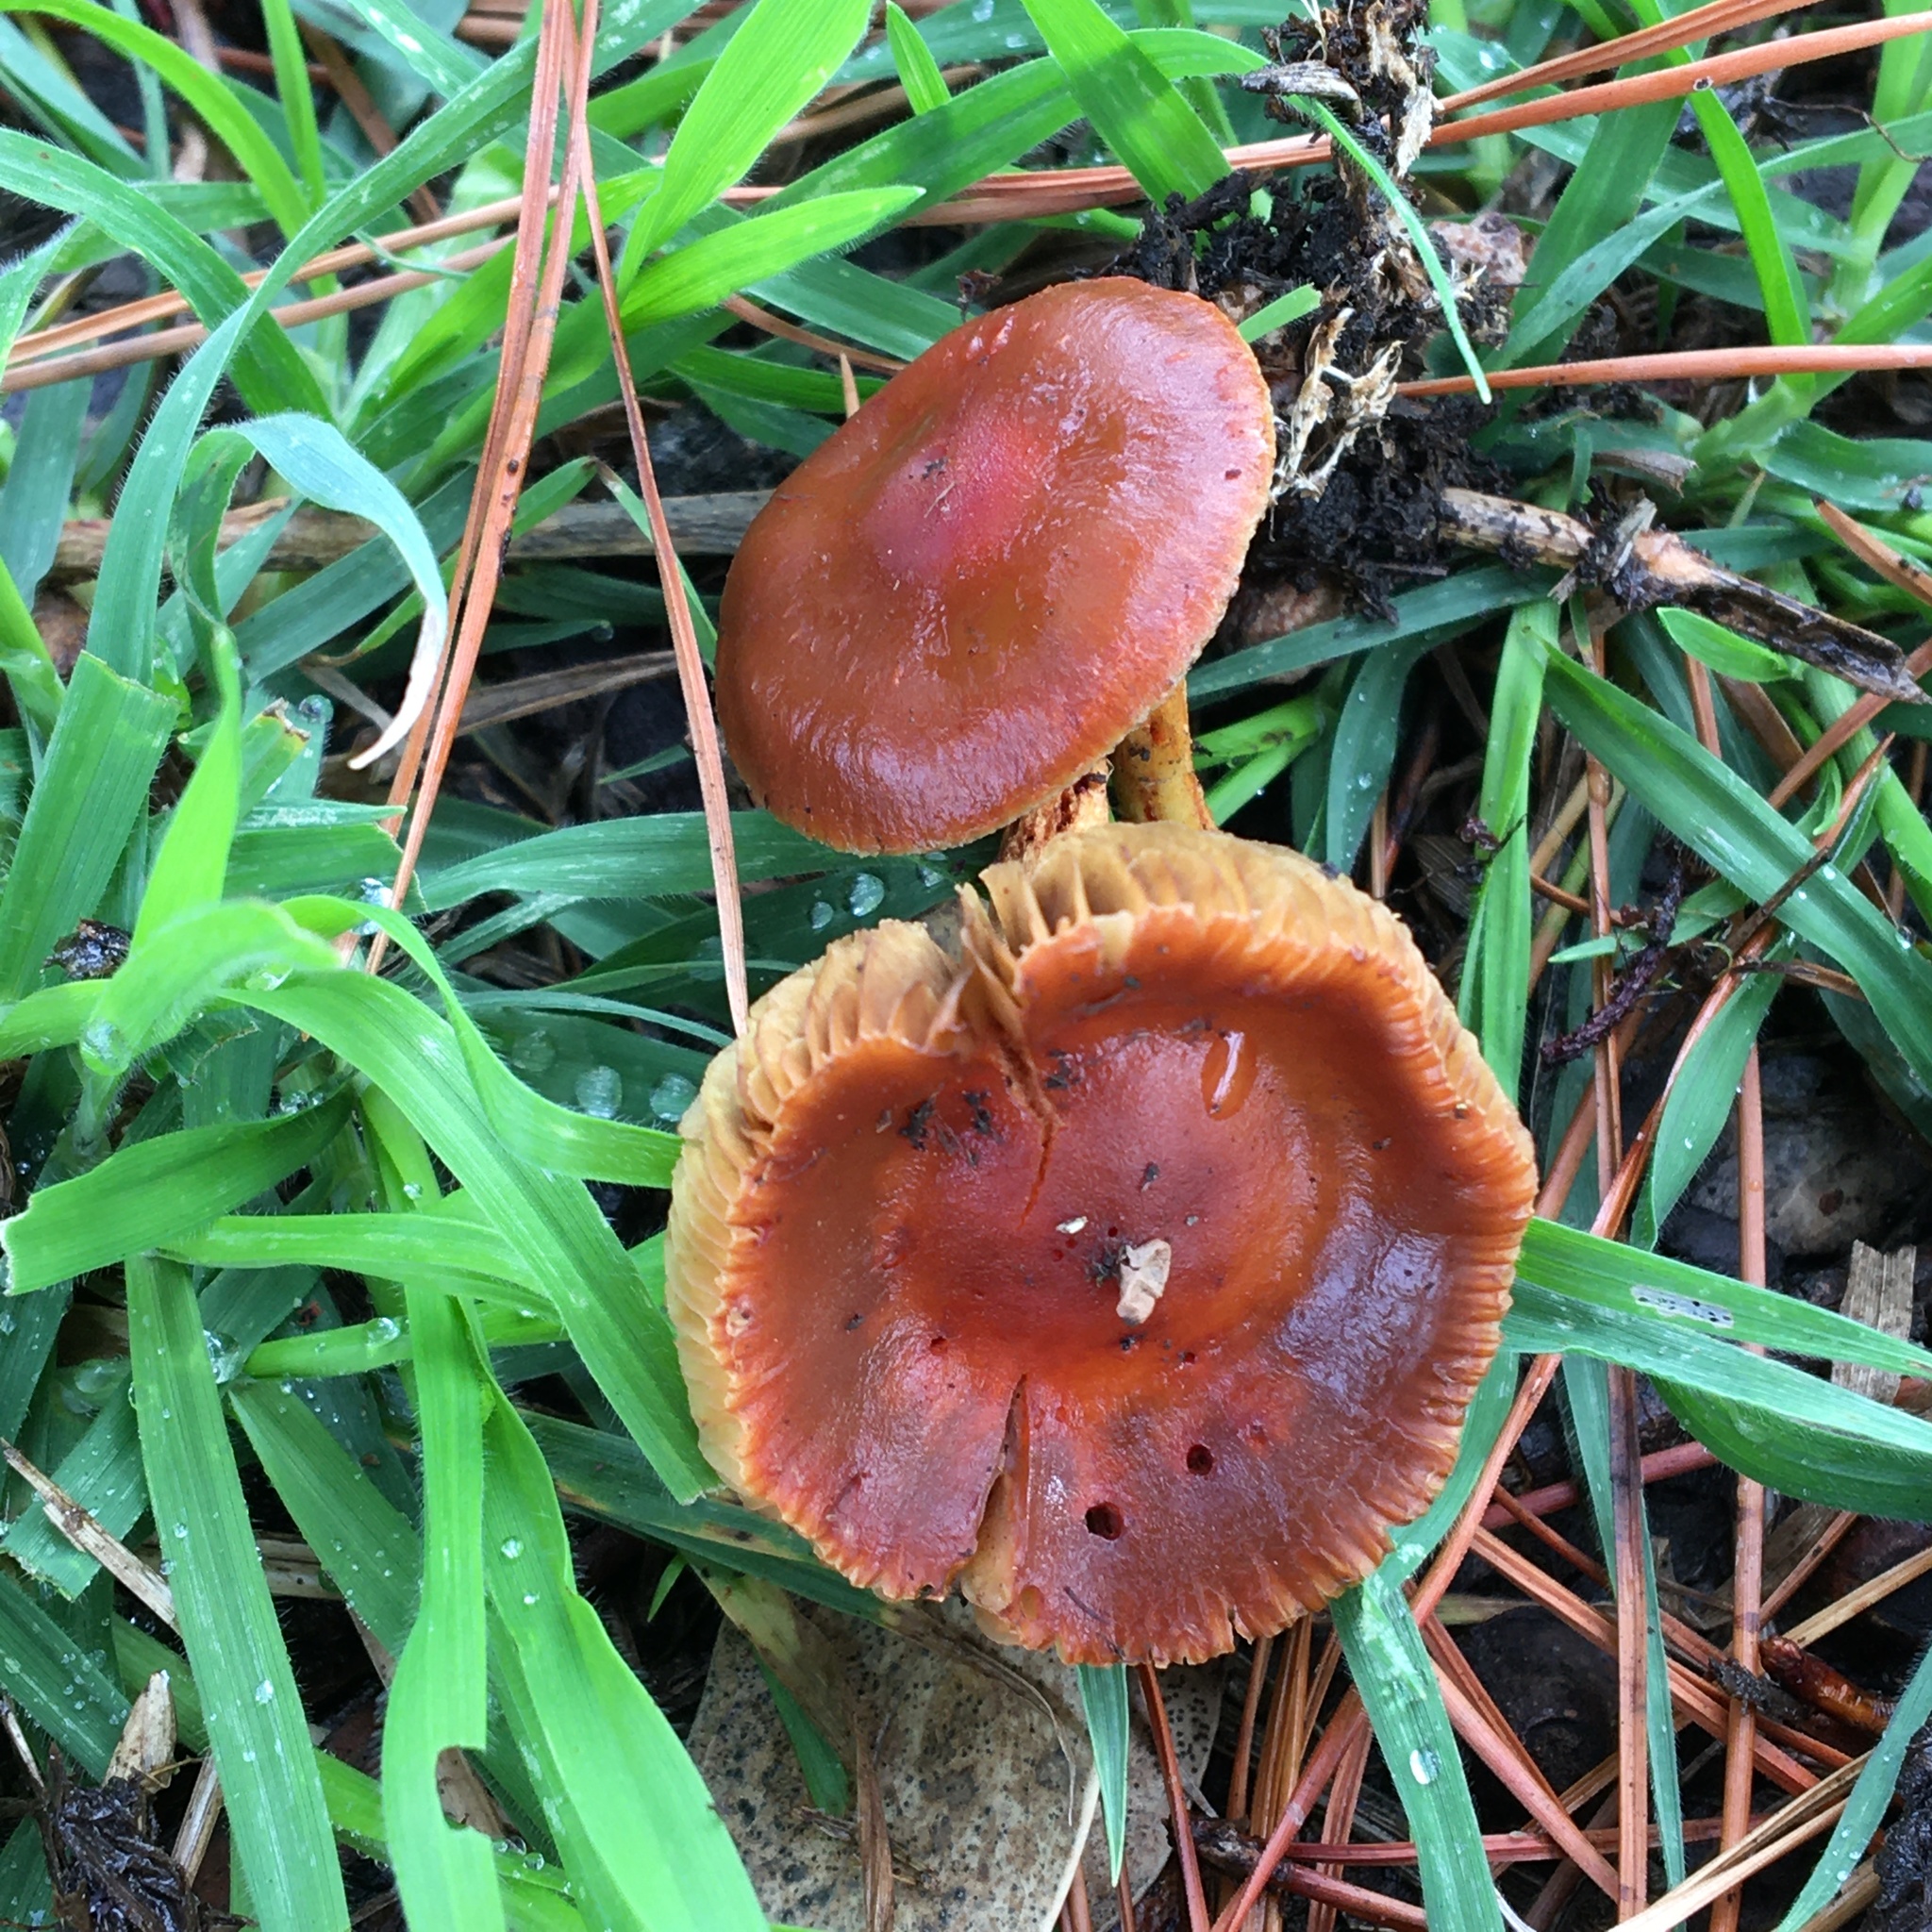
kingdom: Fungi
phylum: Basidiomycota
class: Agaricomycetes
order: Agaricales
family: Strophariaceae
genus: Leratiomyces
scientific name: Leratiomyces ceres
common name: Redlead roundhead
